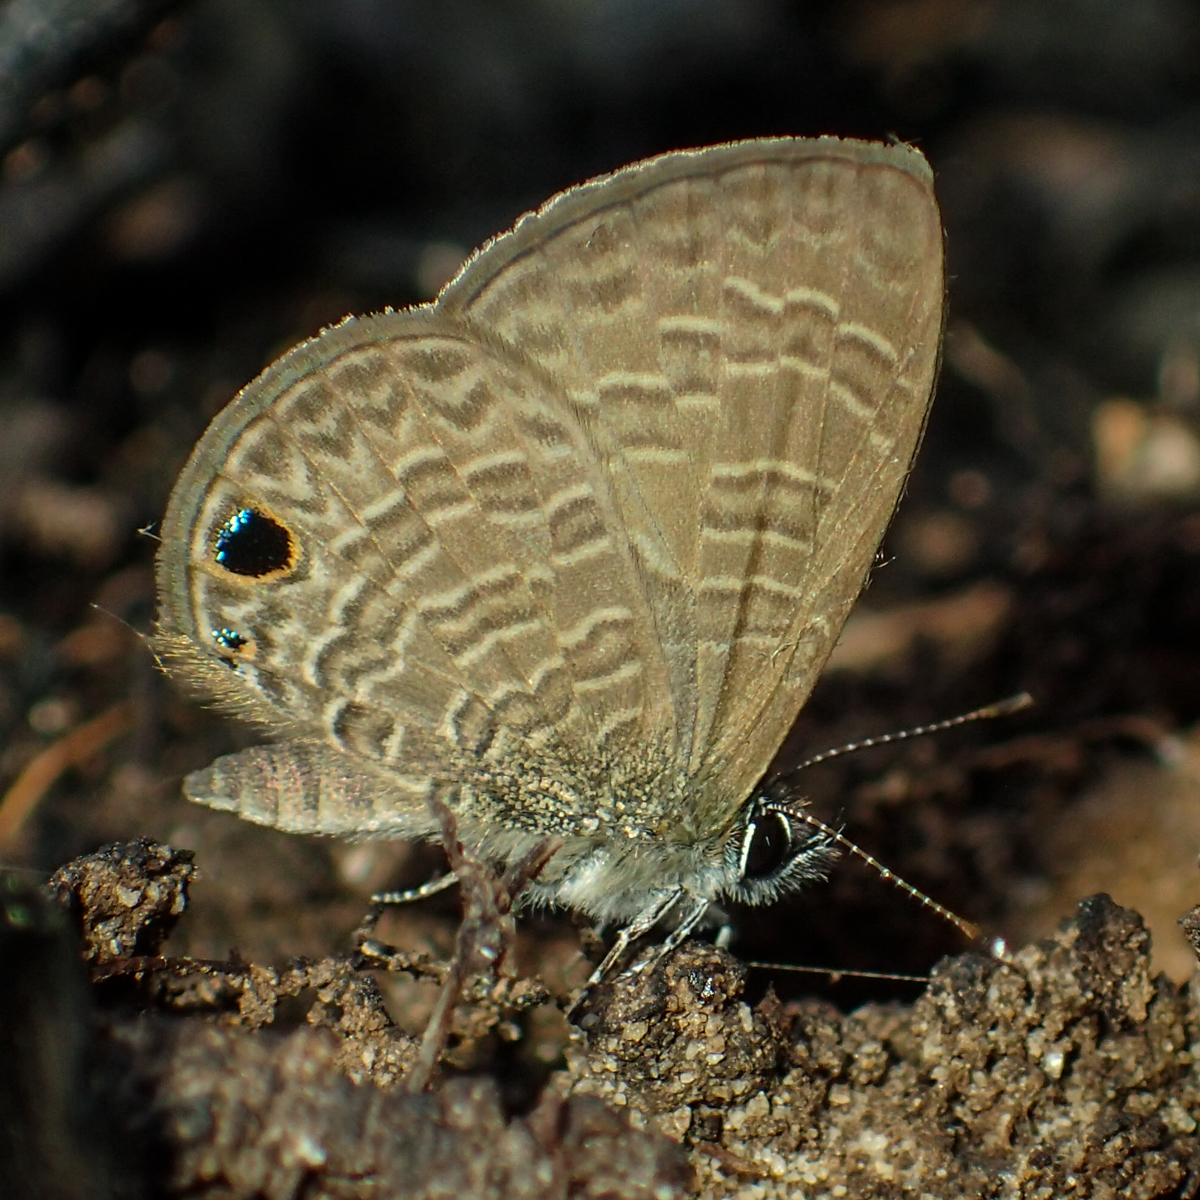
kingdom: Animalia
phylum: Arthropoda
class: Insecta
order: Lepidoptera
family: Lycaenidae
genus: Prosotas
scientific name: Prosotas dubiosa
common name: Tailless lineblue
